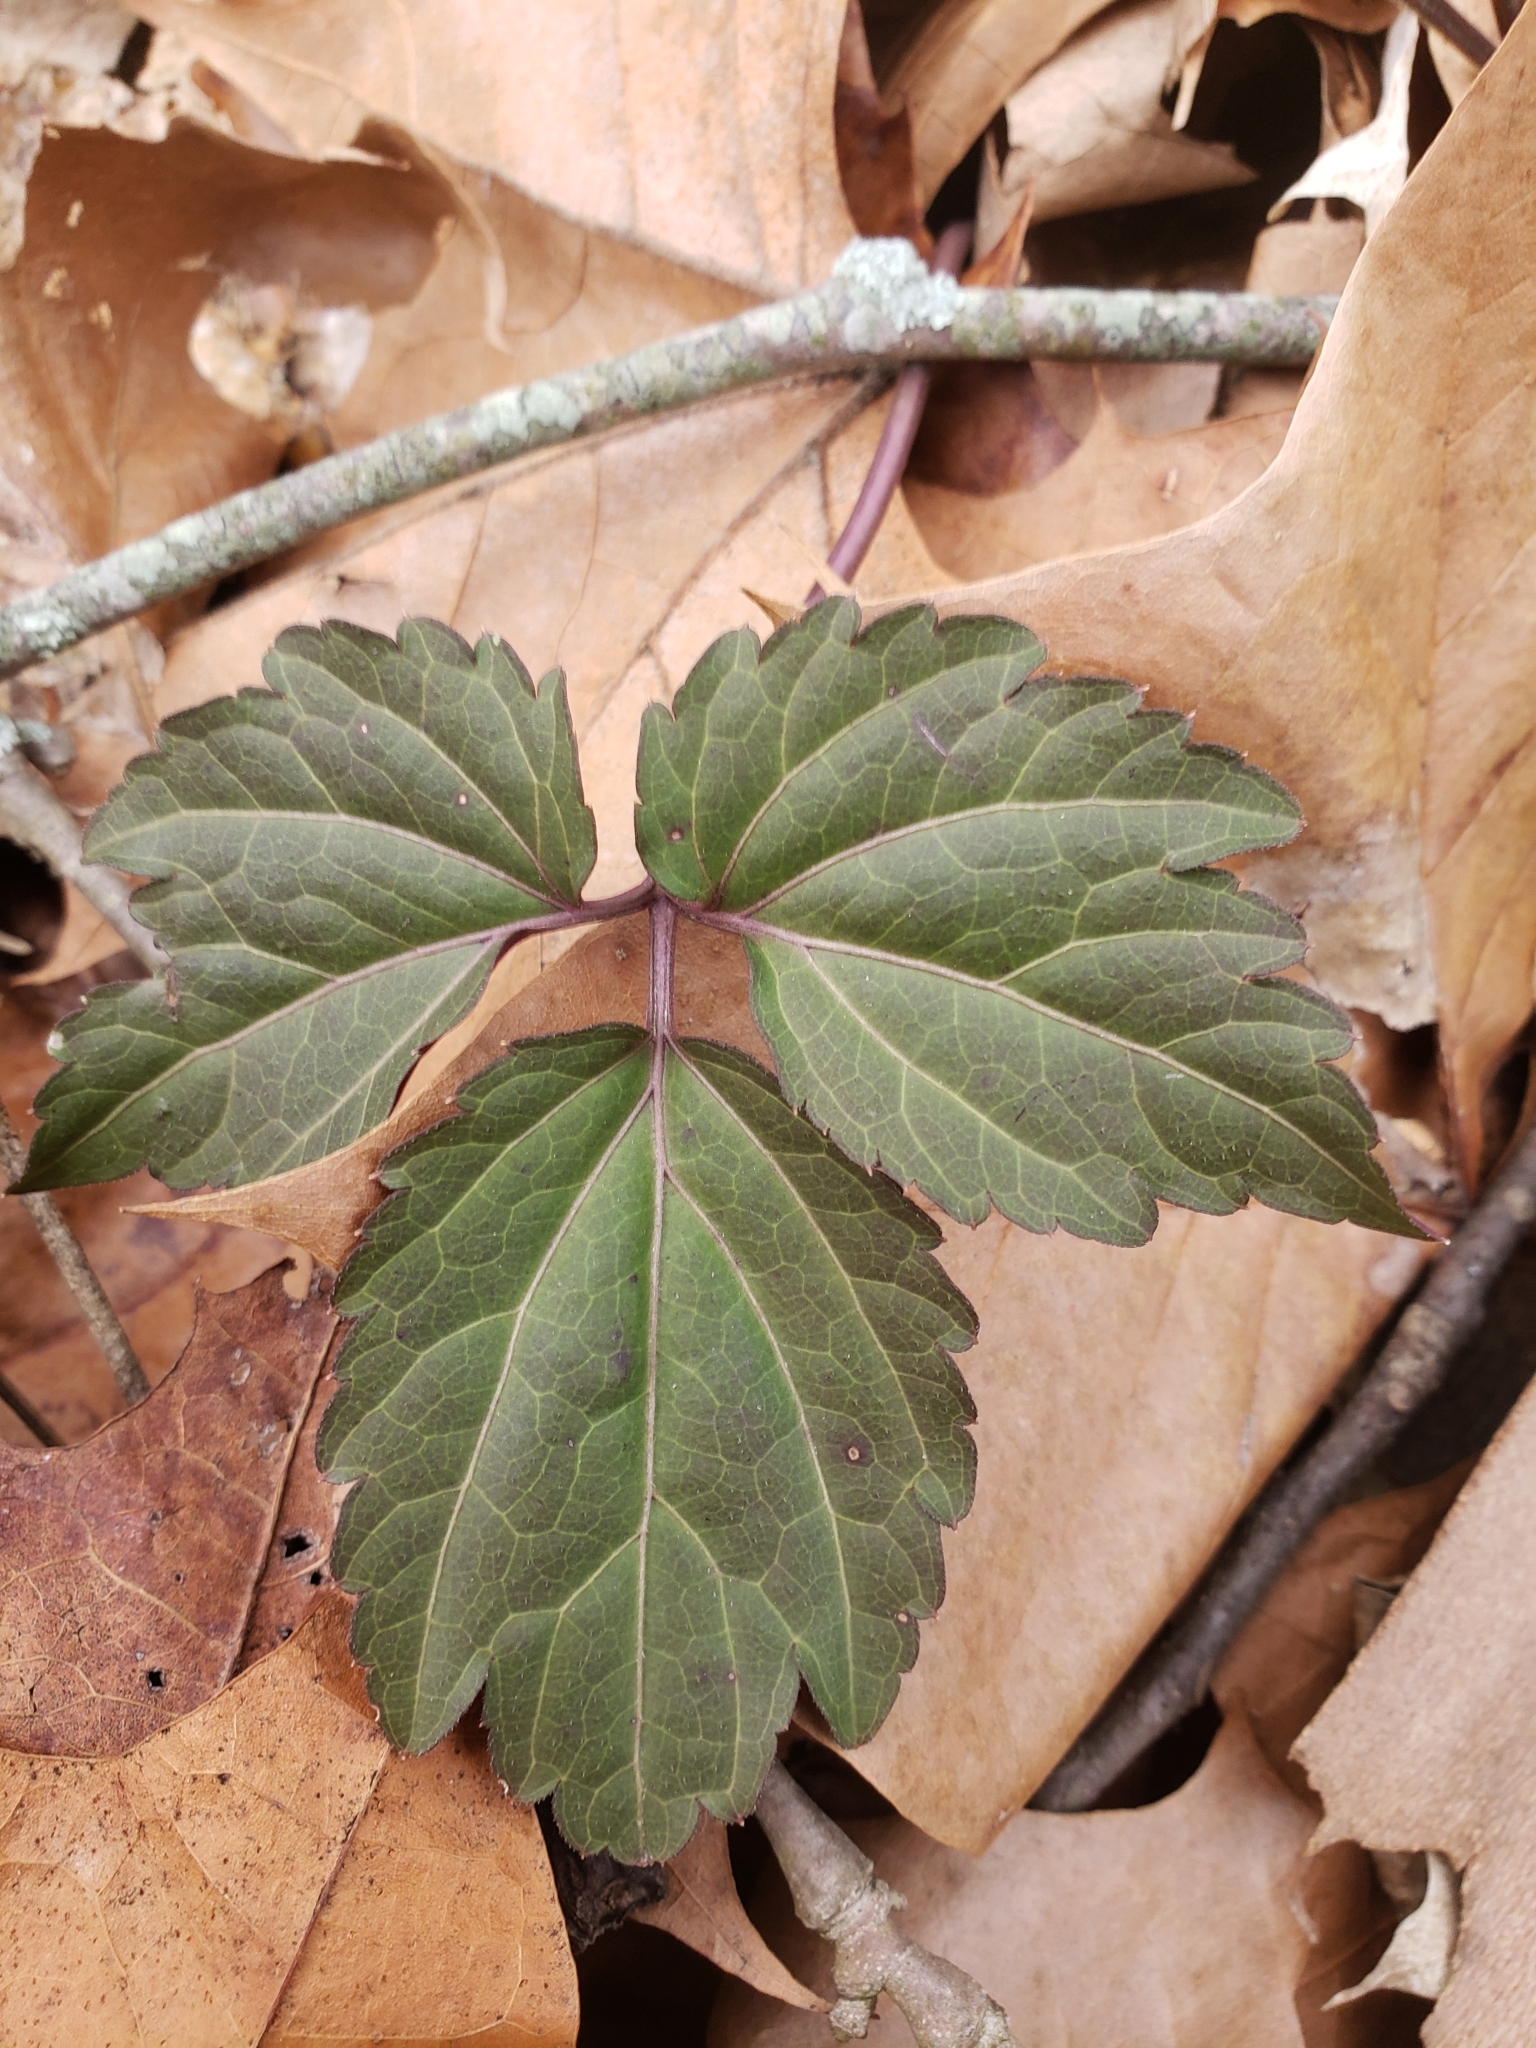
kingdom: Plantae
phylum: Tracheophyta
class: Magnoliopsida
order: Brassicales
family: Brassicaceae
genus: Cardamine
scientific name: Cardamine diphylla
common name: Broad-leaved toothwort
